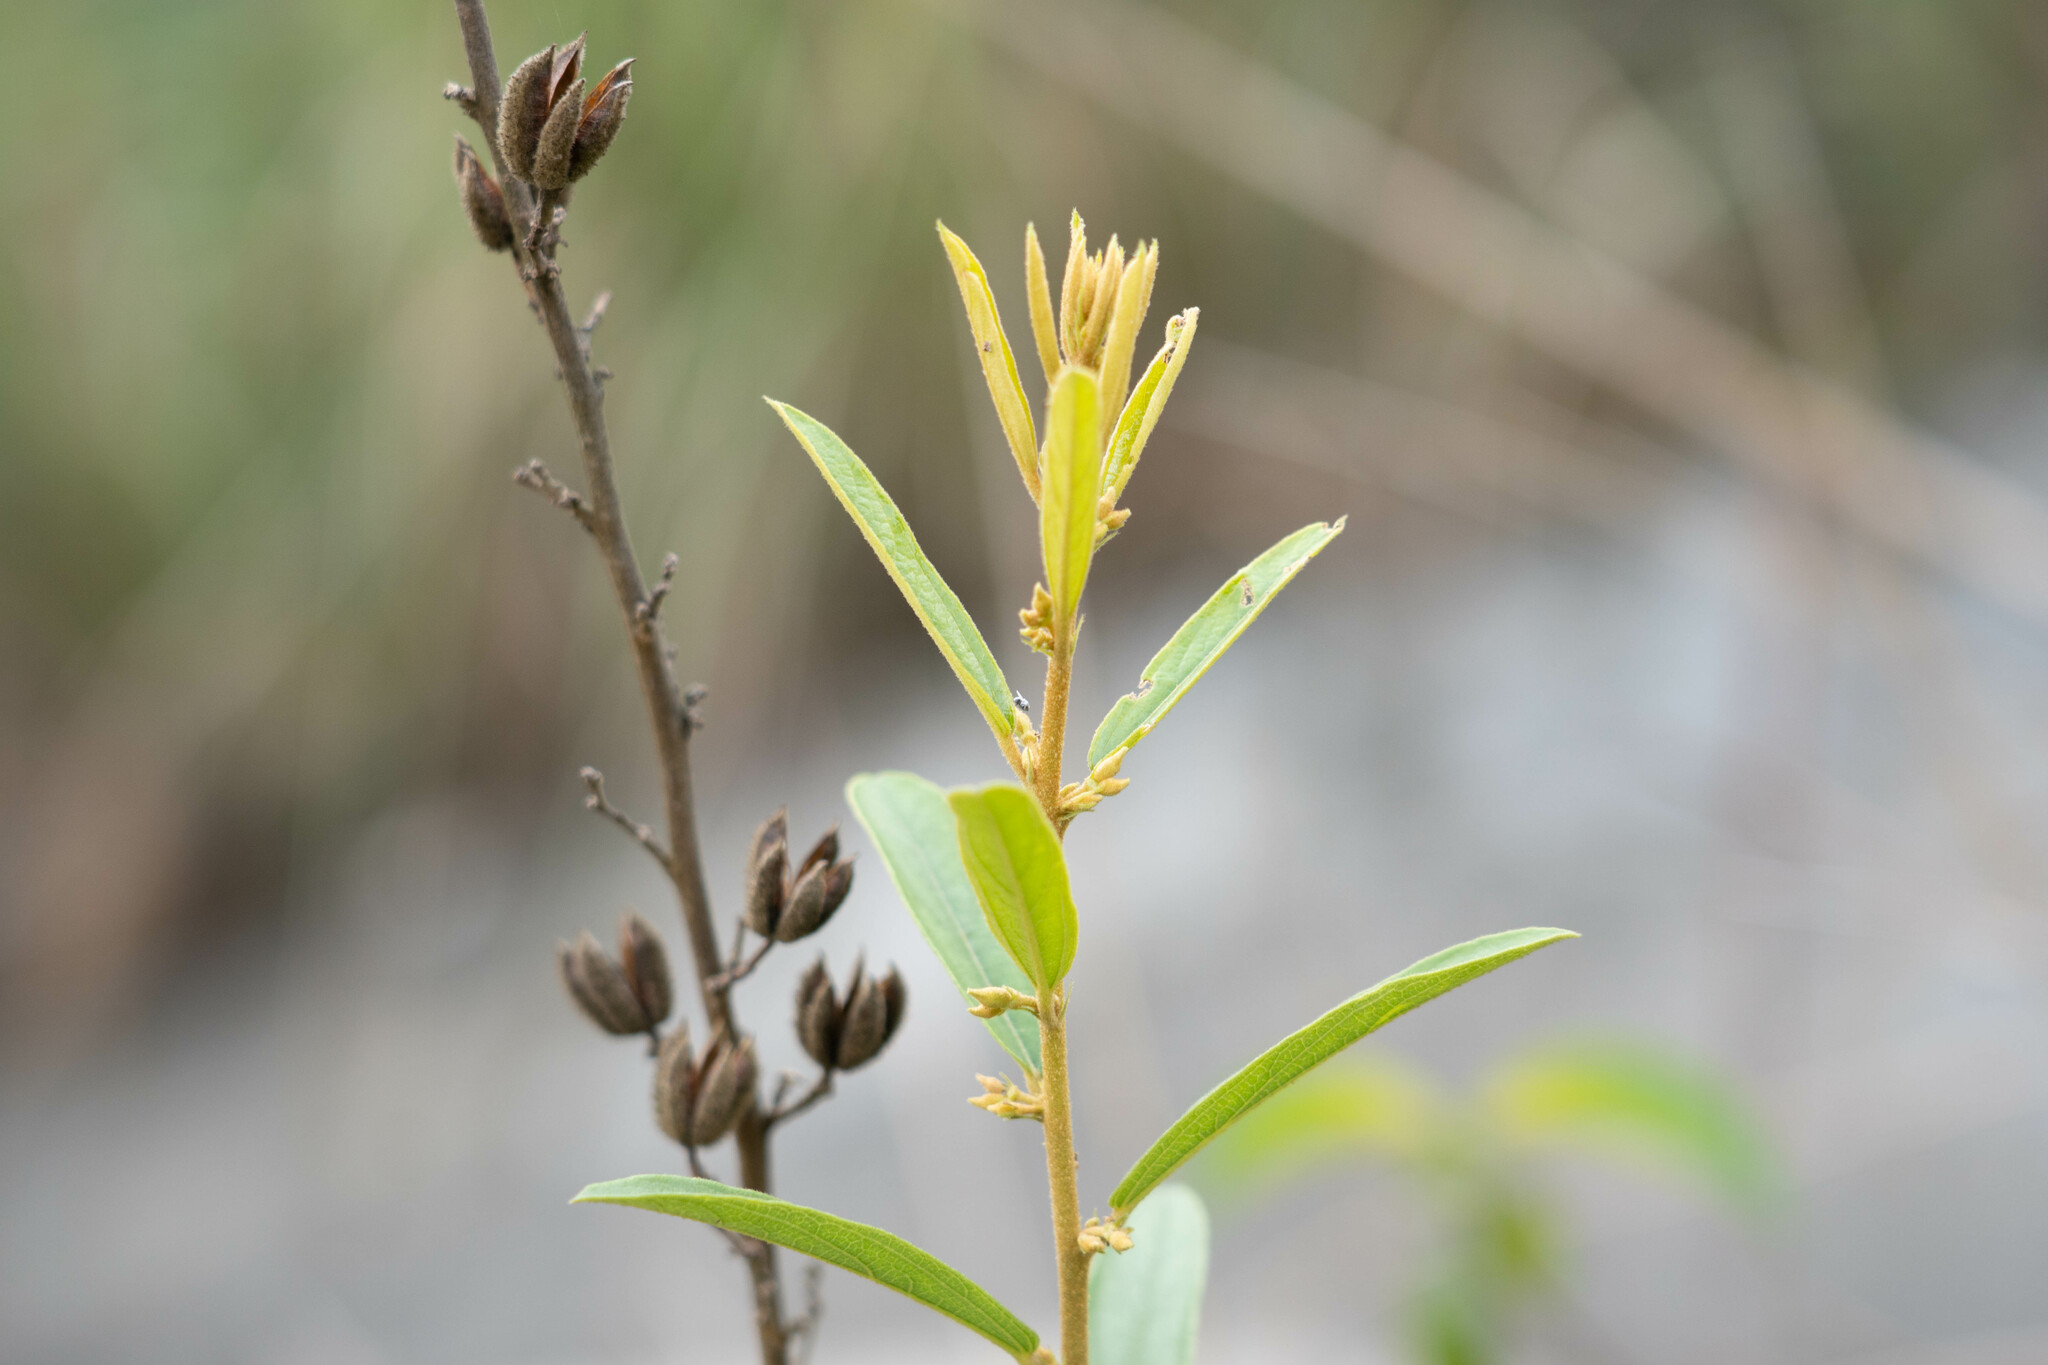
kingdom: Plantae
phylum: Tracheophyta
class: Magnoliopsida
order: Malvales
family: Malvaceae
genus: Helicteres
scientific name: Helicteres angustifolia
